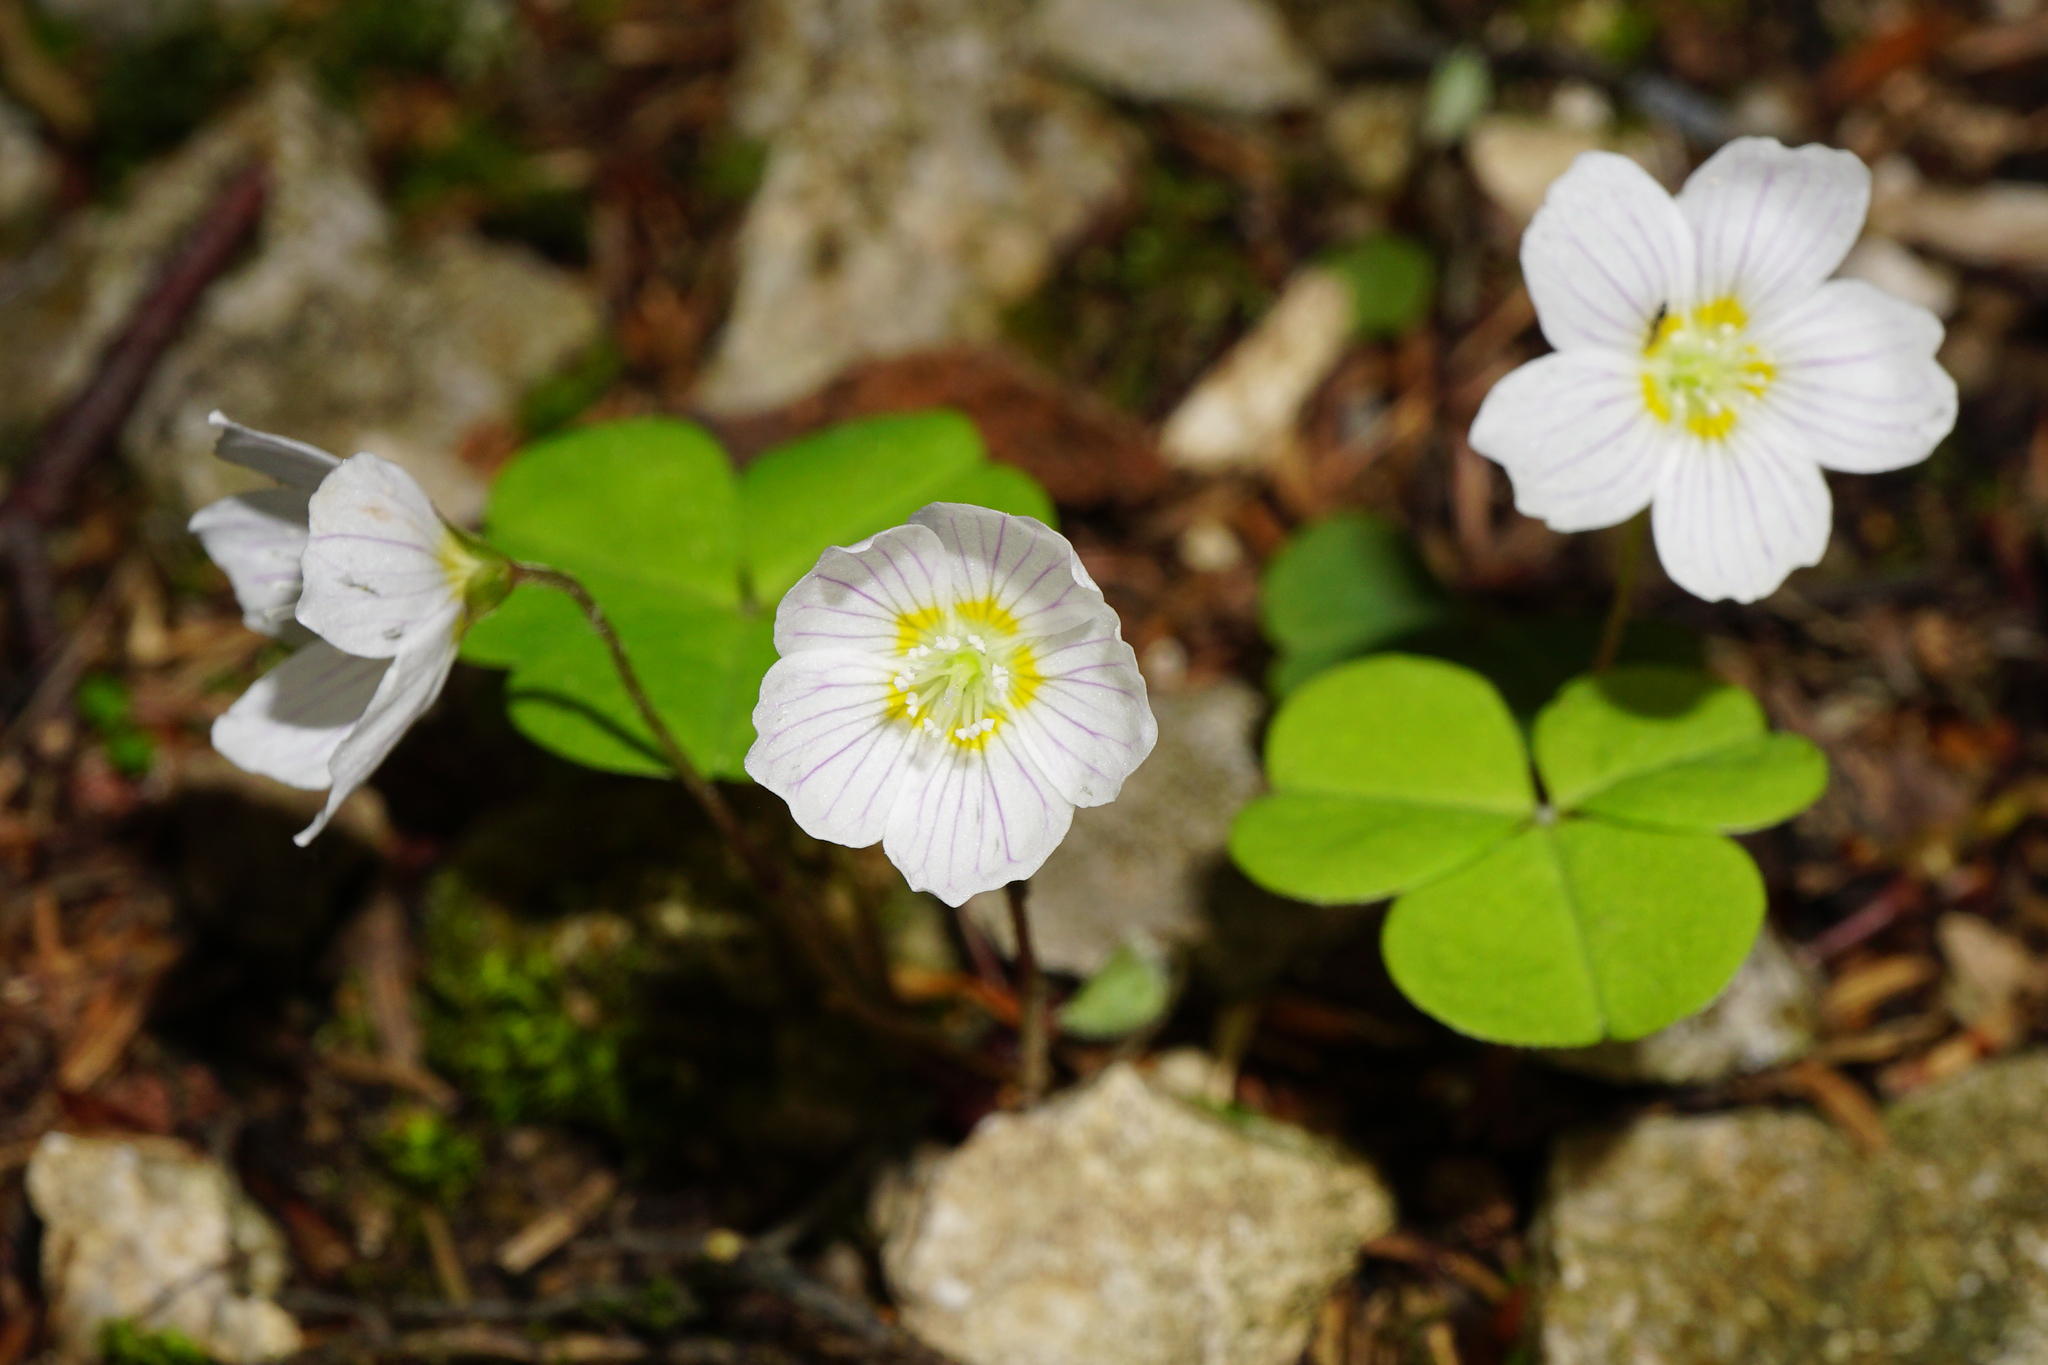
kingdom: Plantae
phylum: Tracheophyta
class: Magnoliopsida
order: Oxalidales
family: Oxalidaceae
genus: Oxalis
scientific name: Oxalis acetosella
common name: Wood-sorrel
